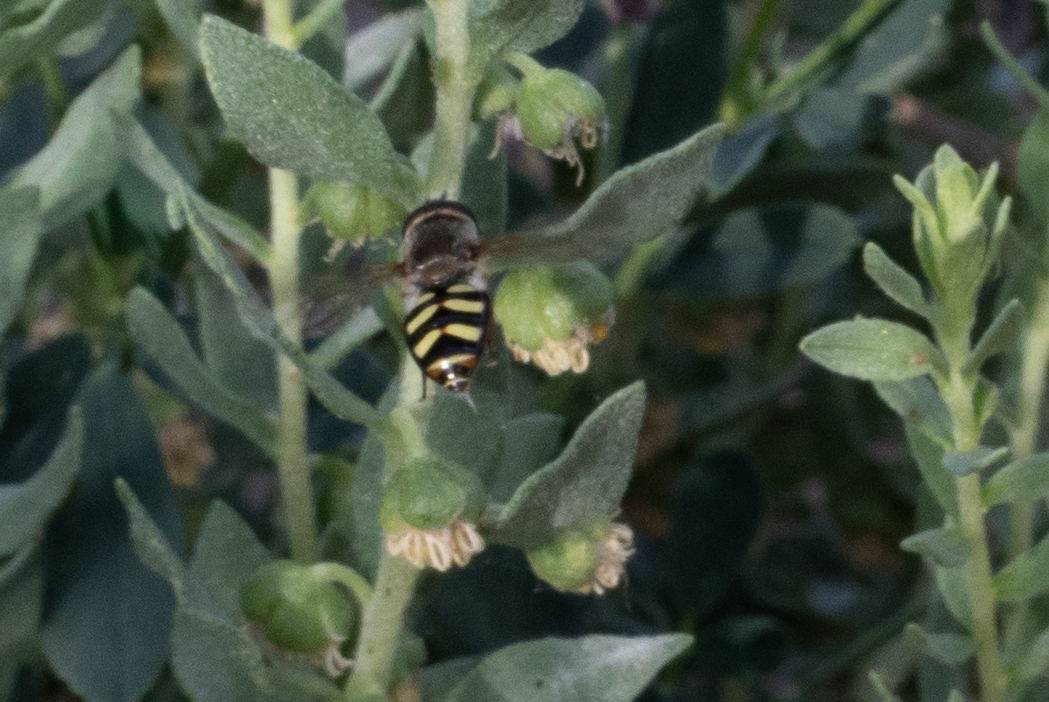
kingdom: Animalia
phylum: Arthropoda
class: Insecta
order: Diptera
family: Syrphidae
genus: Eupeodes
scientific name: Eupeodes fumipennis
